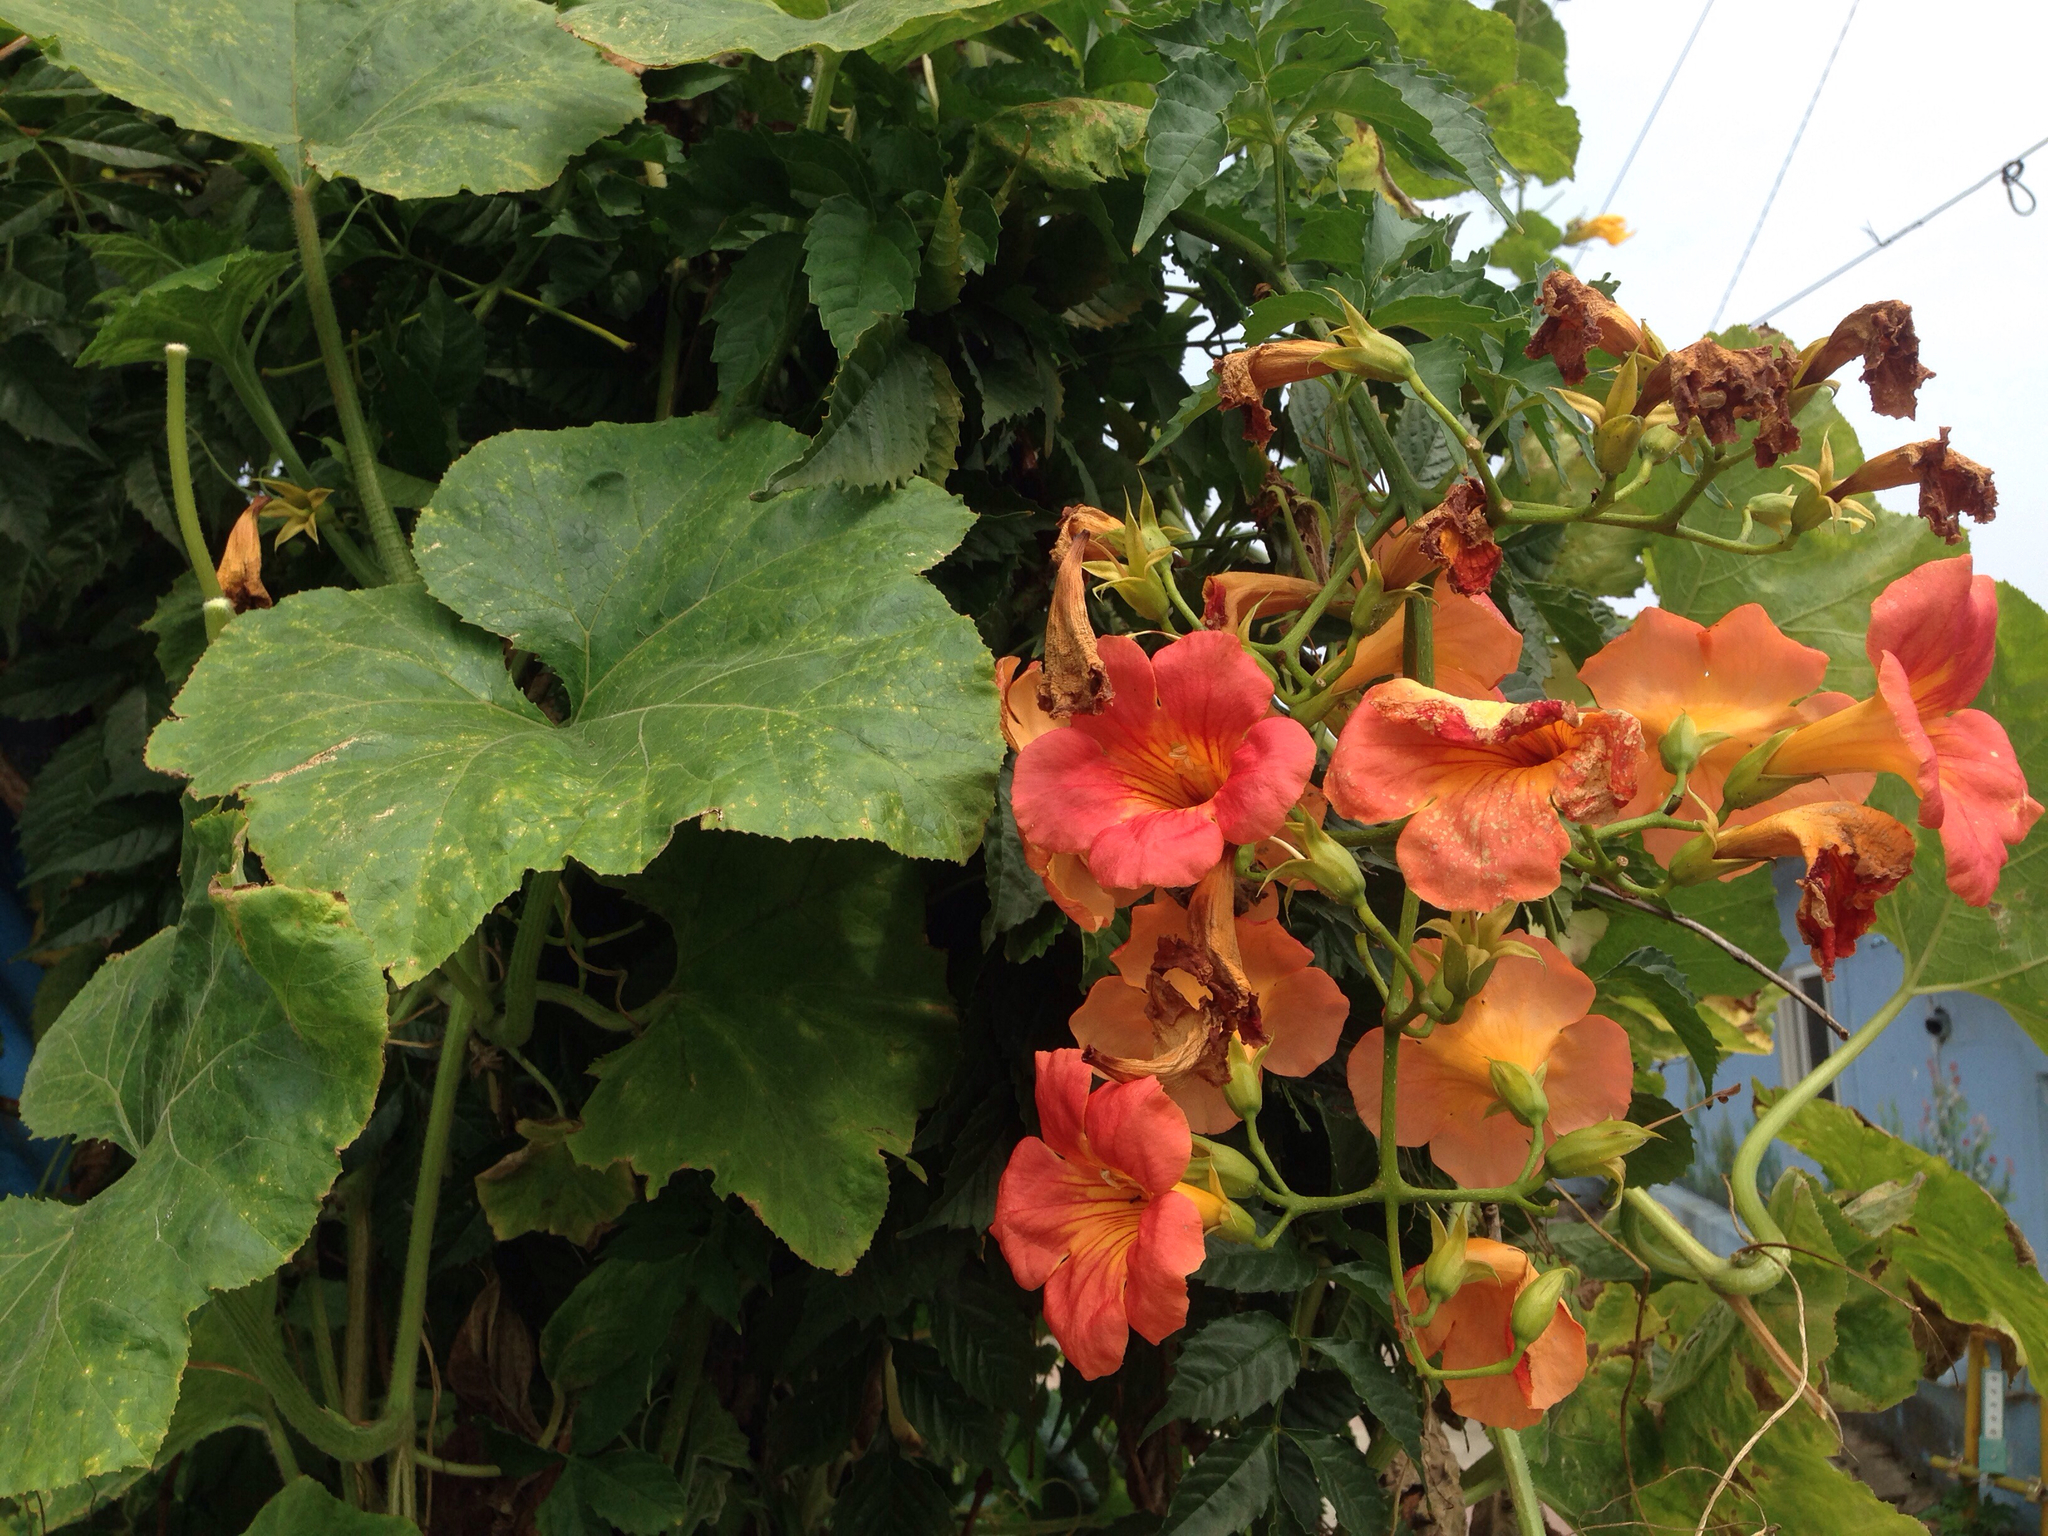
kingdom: Plantae
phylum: Tracheophyta
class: Magnoliopsida
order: Lamiales
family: Bignoniaceae
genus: Campsis
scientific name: Campsis grandiflora
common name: Chinese trumpet-creeper
